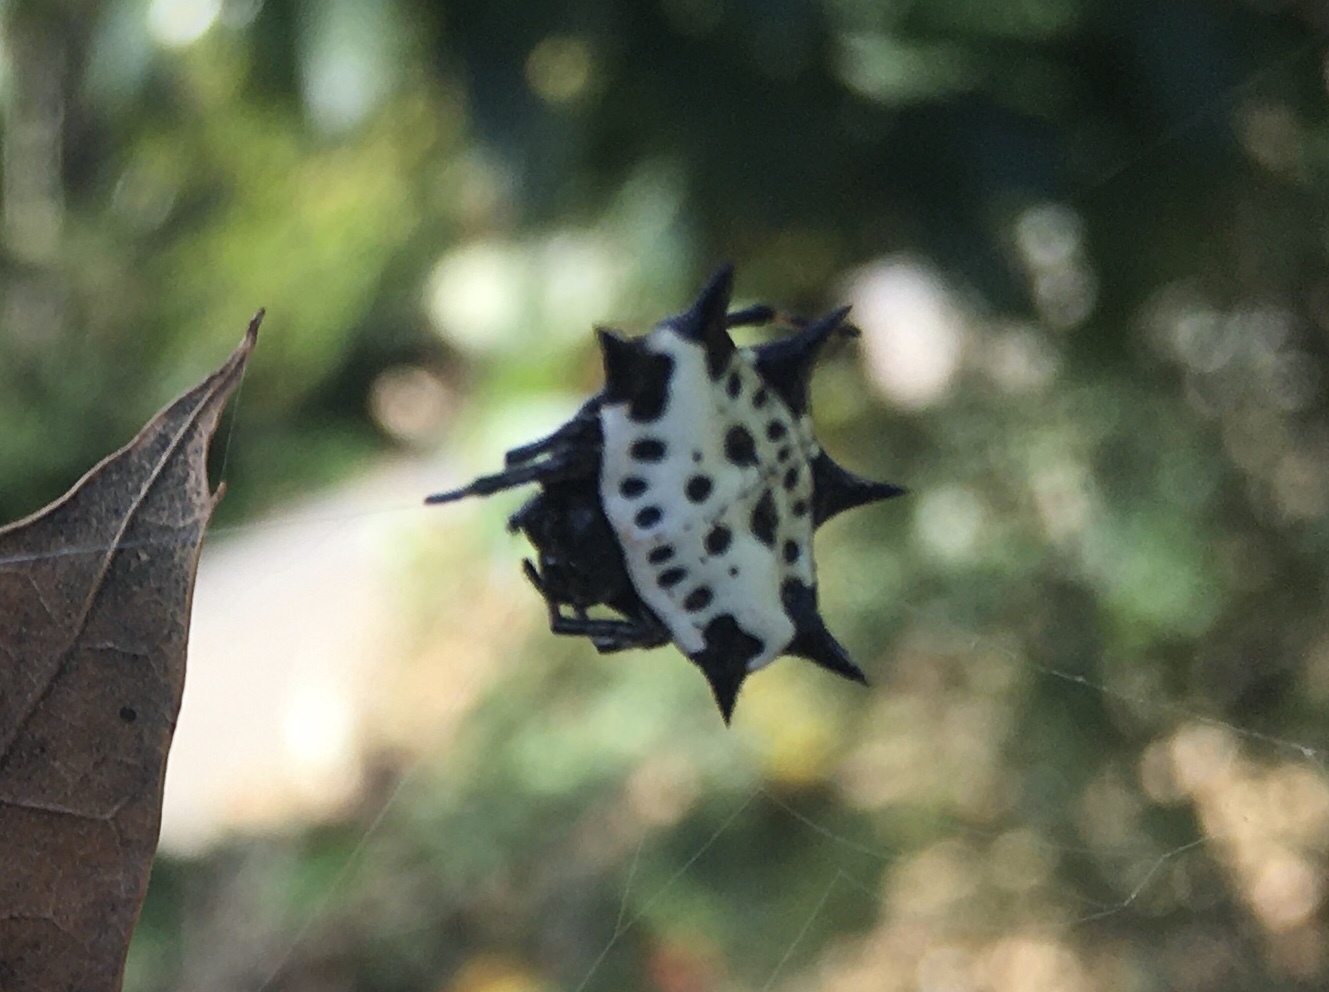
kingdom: Animalia
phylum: Arthropoda
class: Arachnida
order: Araneae
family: Araneidae
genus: Gasteracantha
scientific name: Gasteracantha cancriformis
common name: Orb weavers
